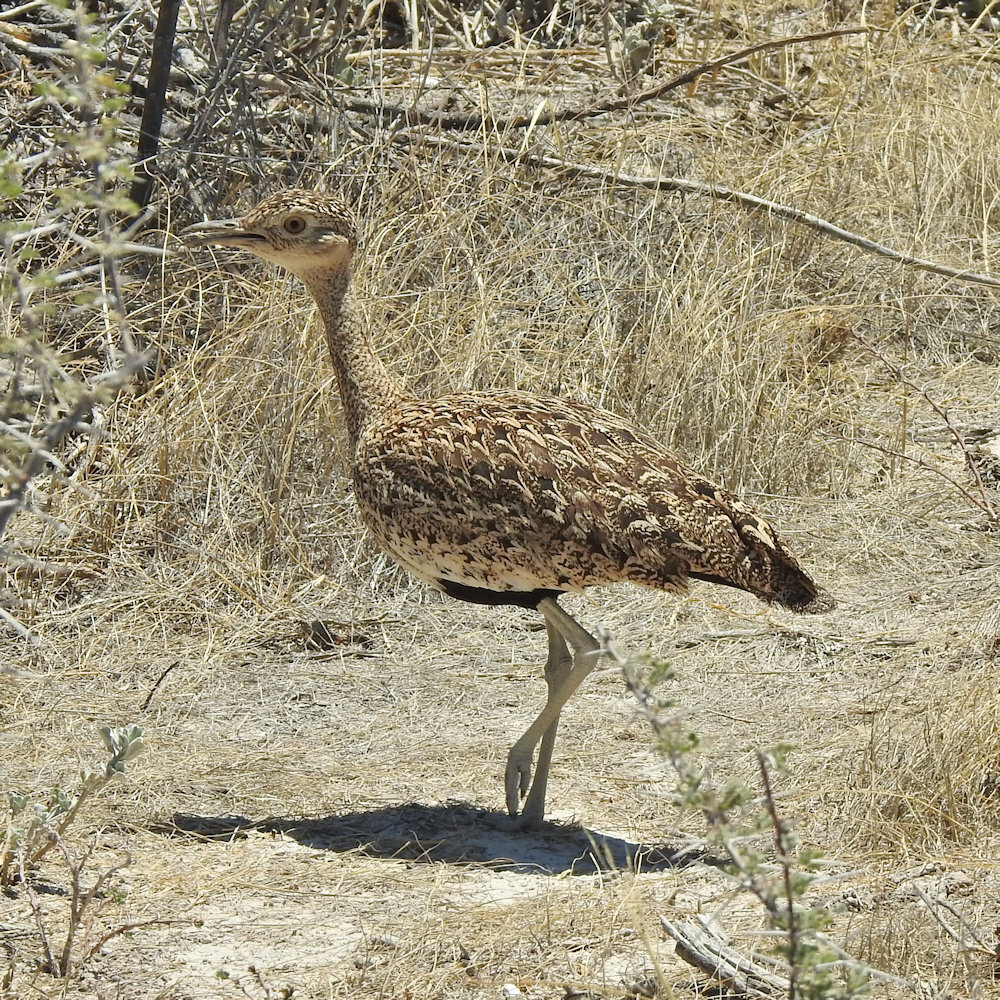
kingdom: Animalia
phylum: Chordata
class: Aves
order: Otidiformes
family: Otididae
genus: Lophotis
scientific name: Lophotis ruficrista
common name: Red-crested korhaan
